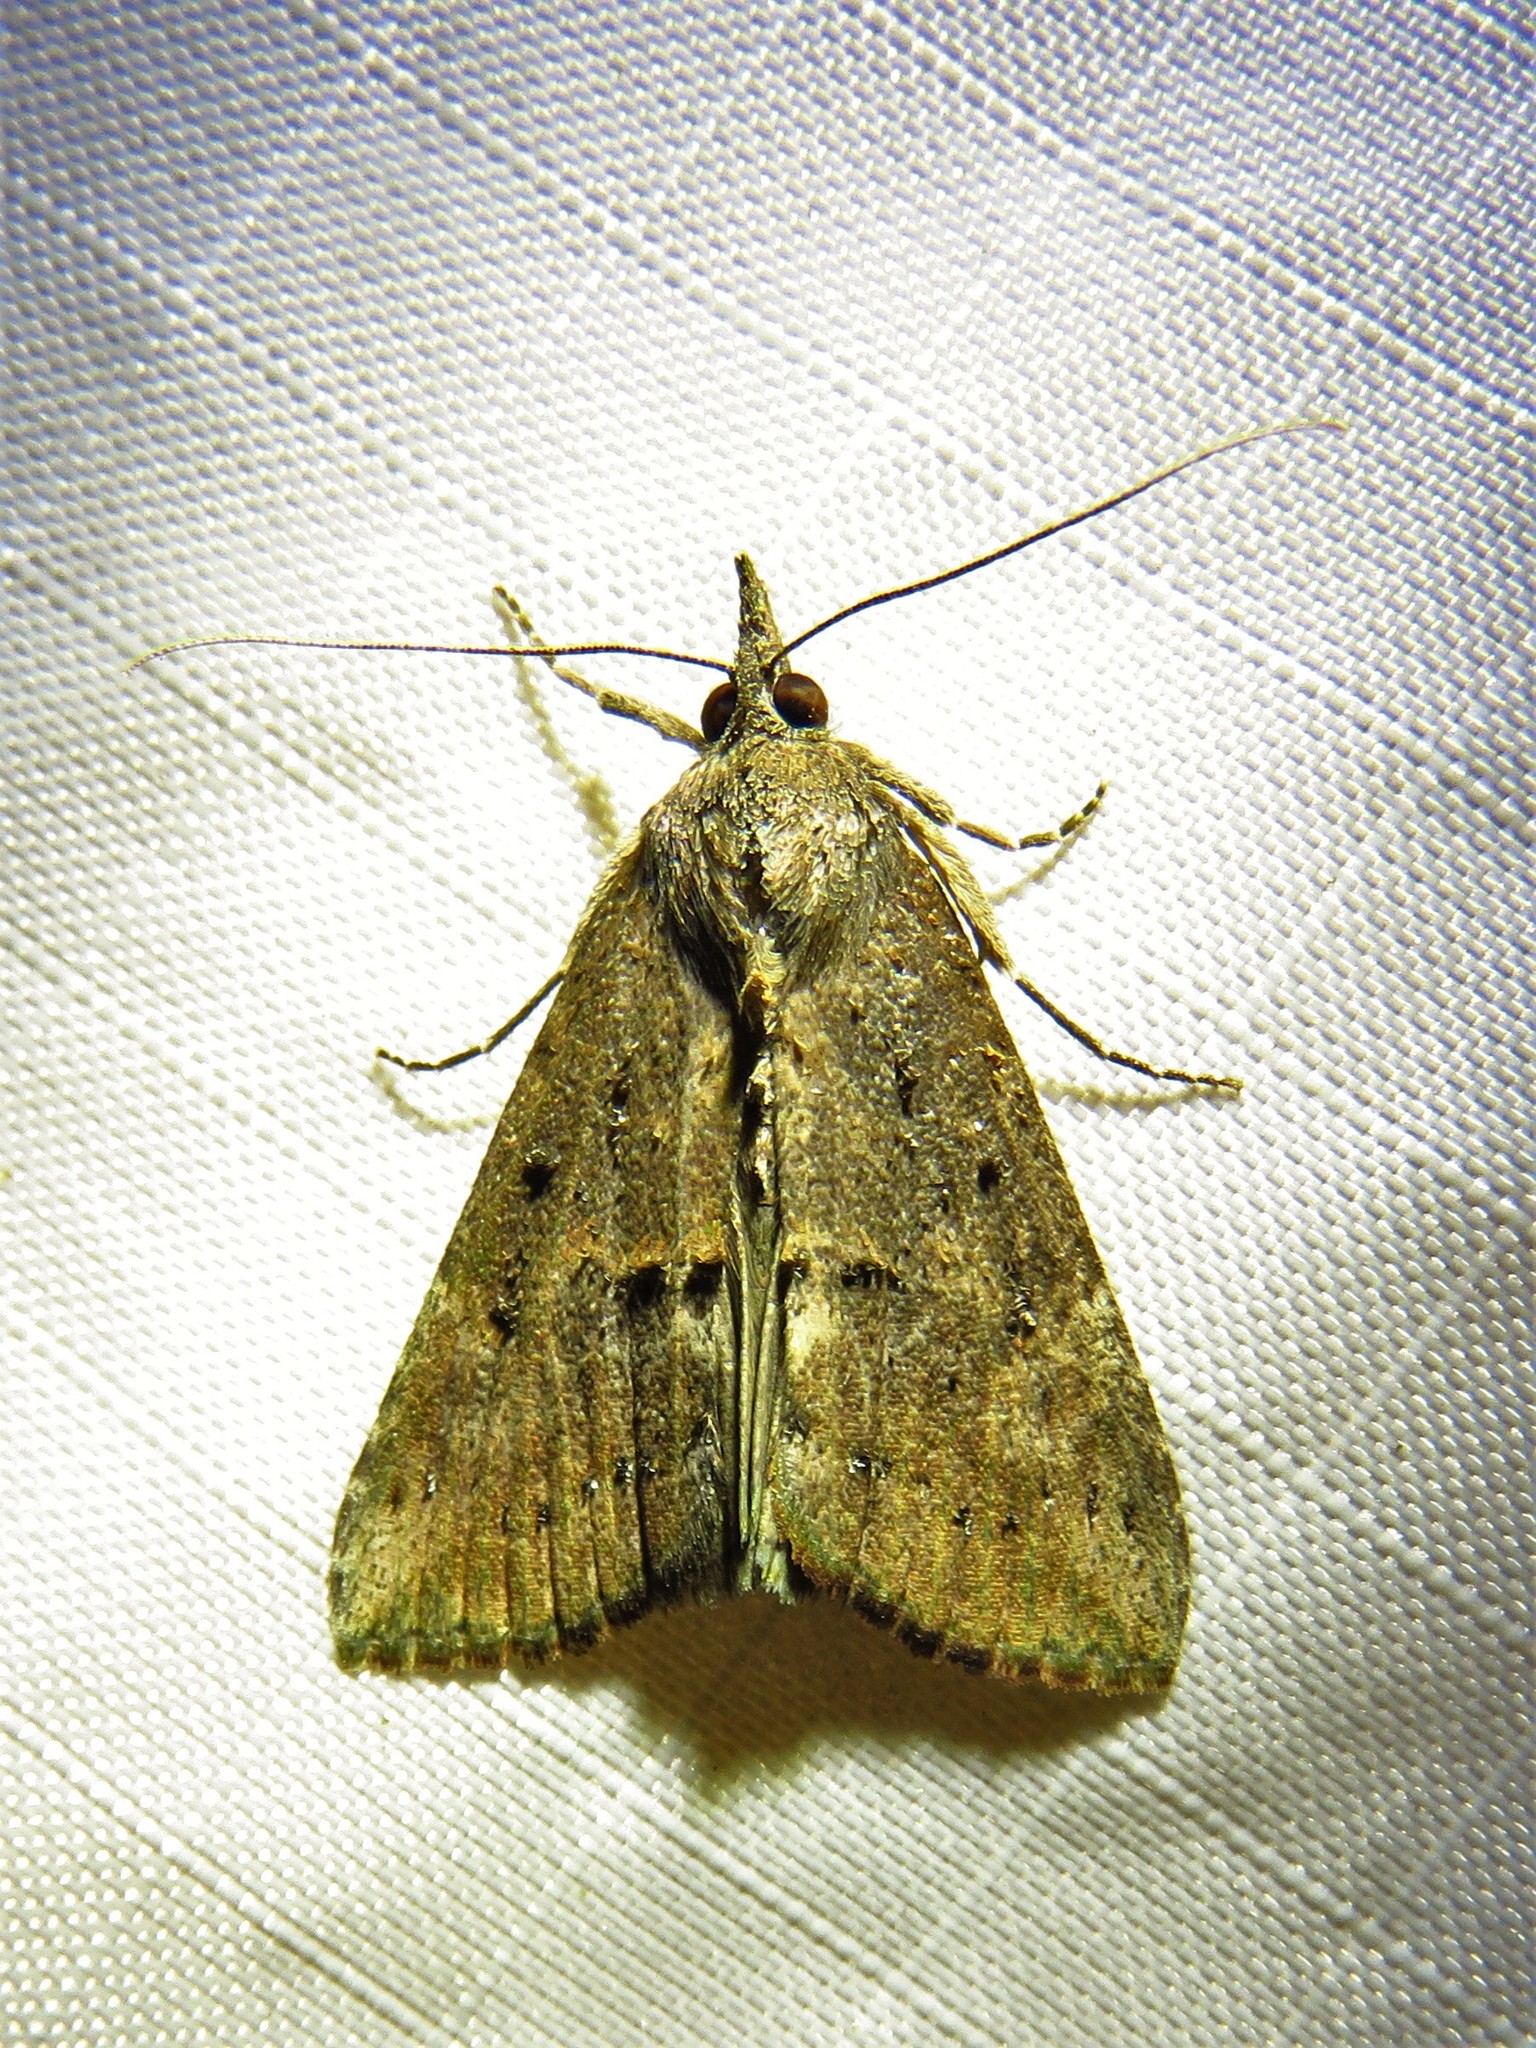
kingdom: Animalia
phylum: Arthropoda
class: Insecta
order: Lepidoptera
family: Erebidae
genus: Hypena
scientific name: Hypena scabra
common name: Green cloverworm
